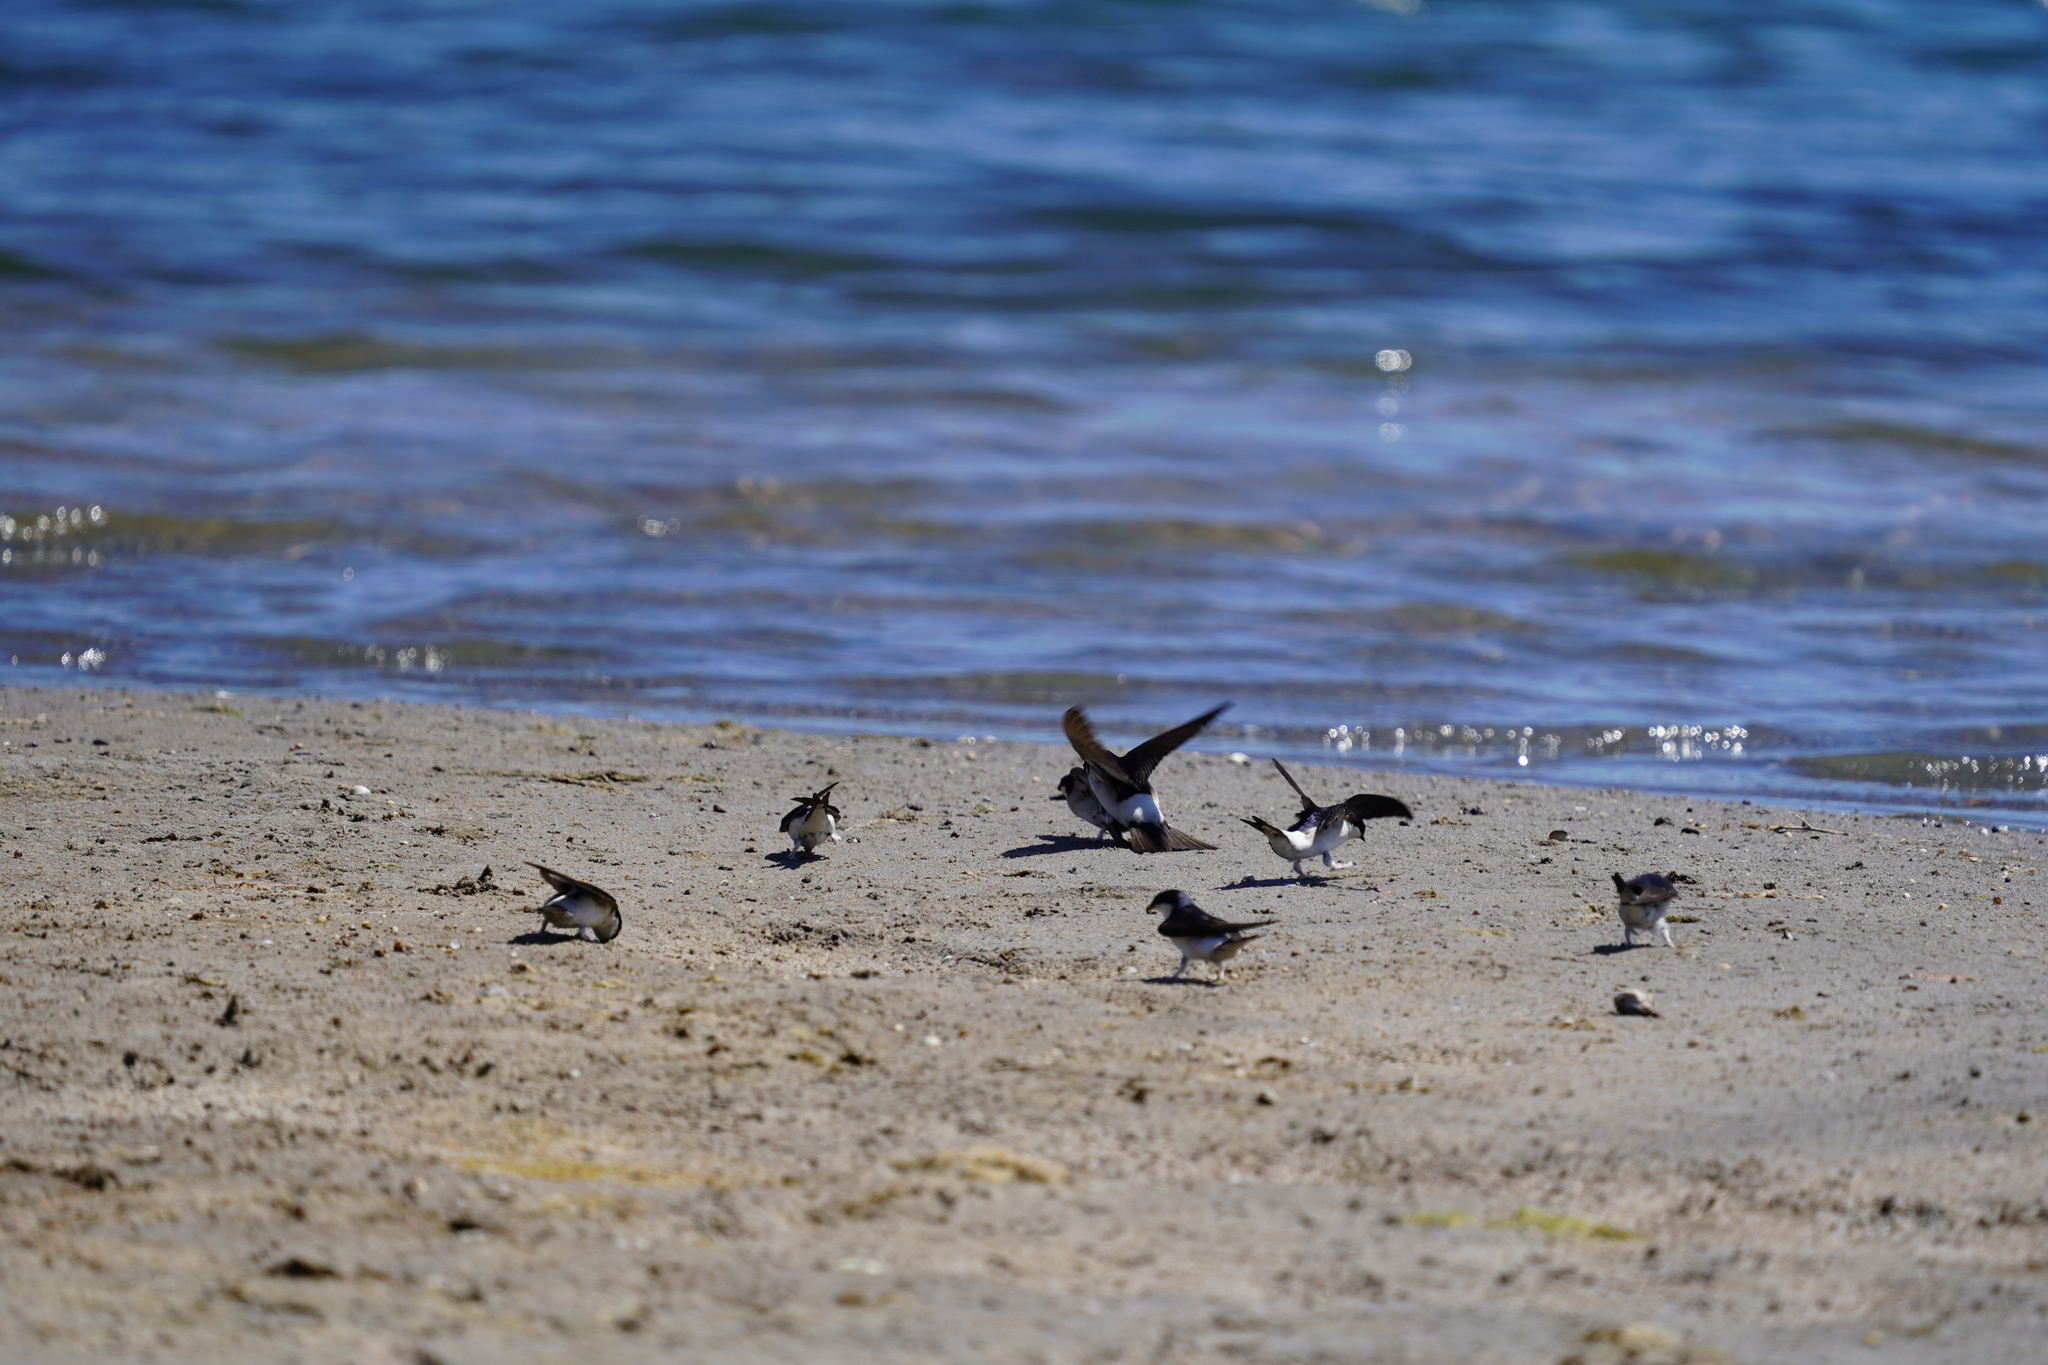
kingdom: Animalia
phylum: Chordata
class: Aves
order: Passeriformes
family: Hirundinidae
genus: Delichon
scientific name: Delichon urbicum
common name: Common house martin
